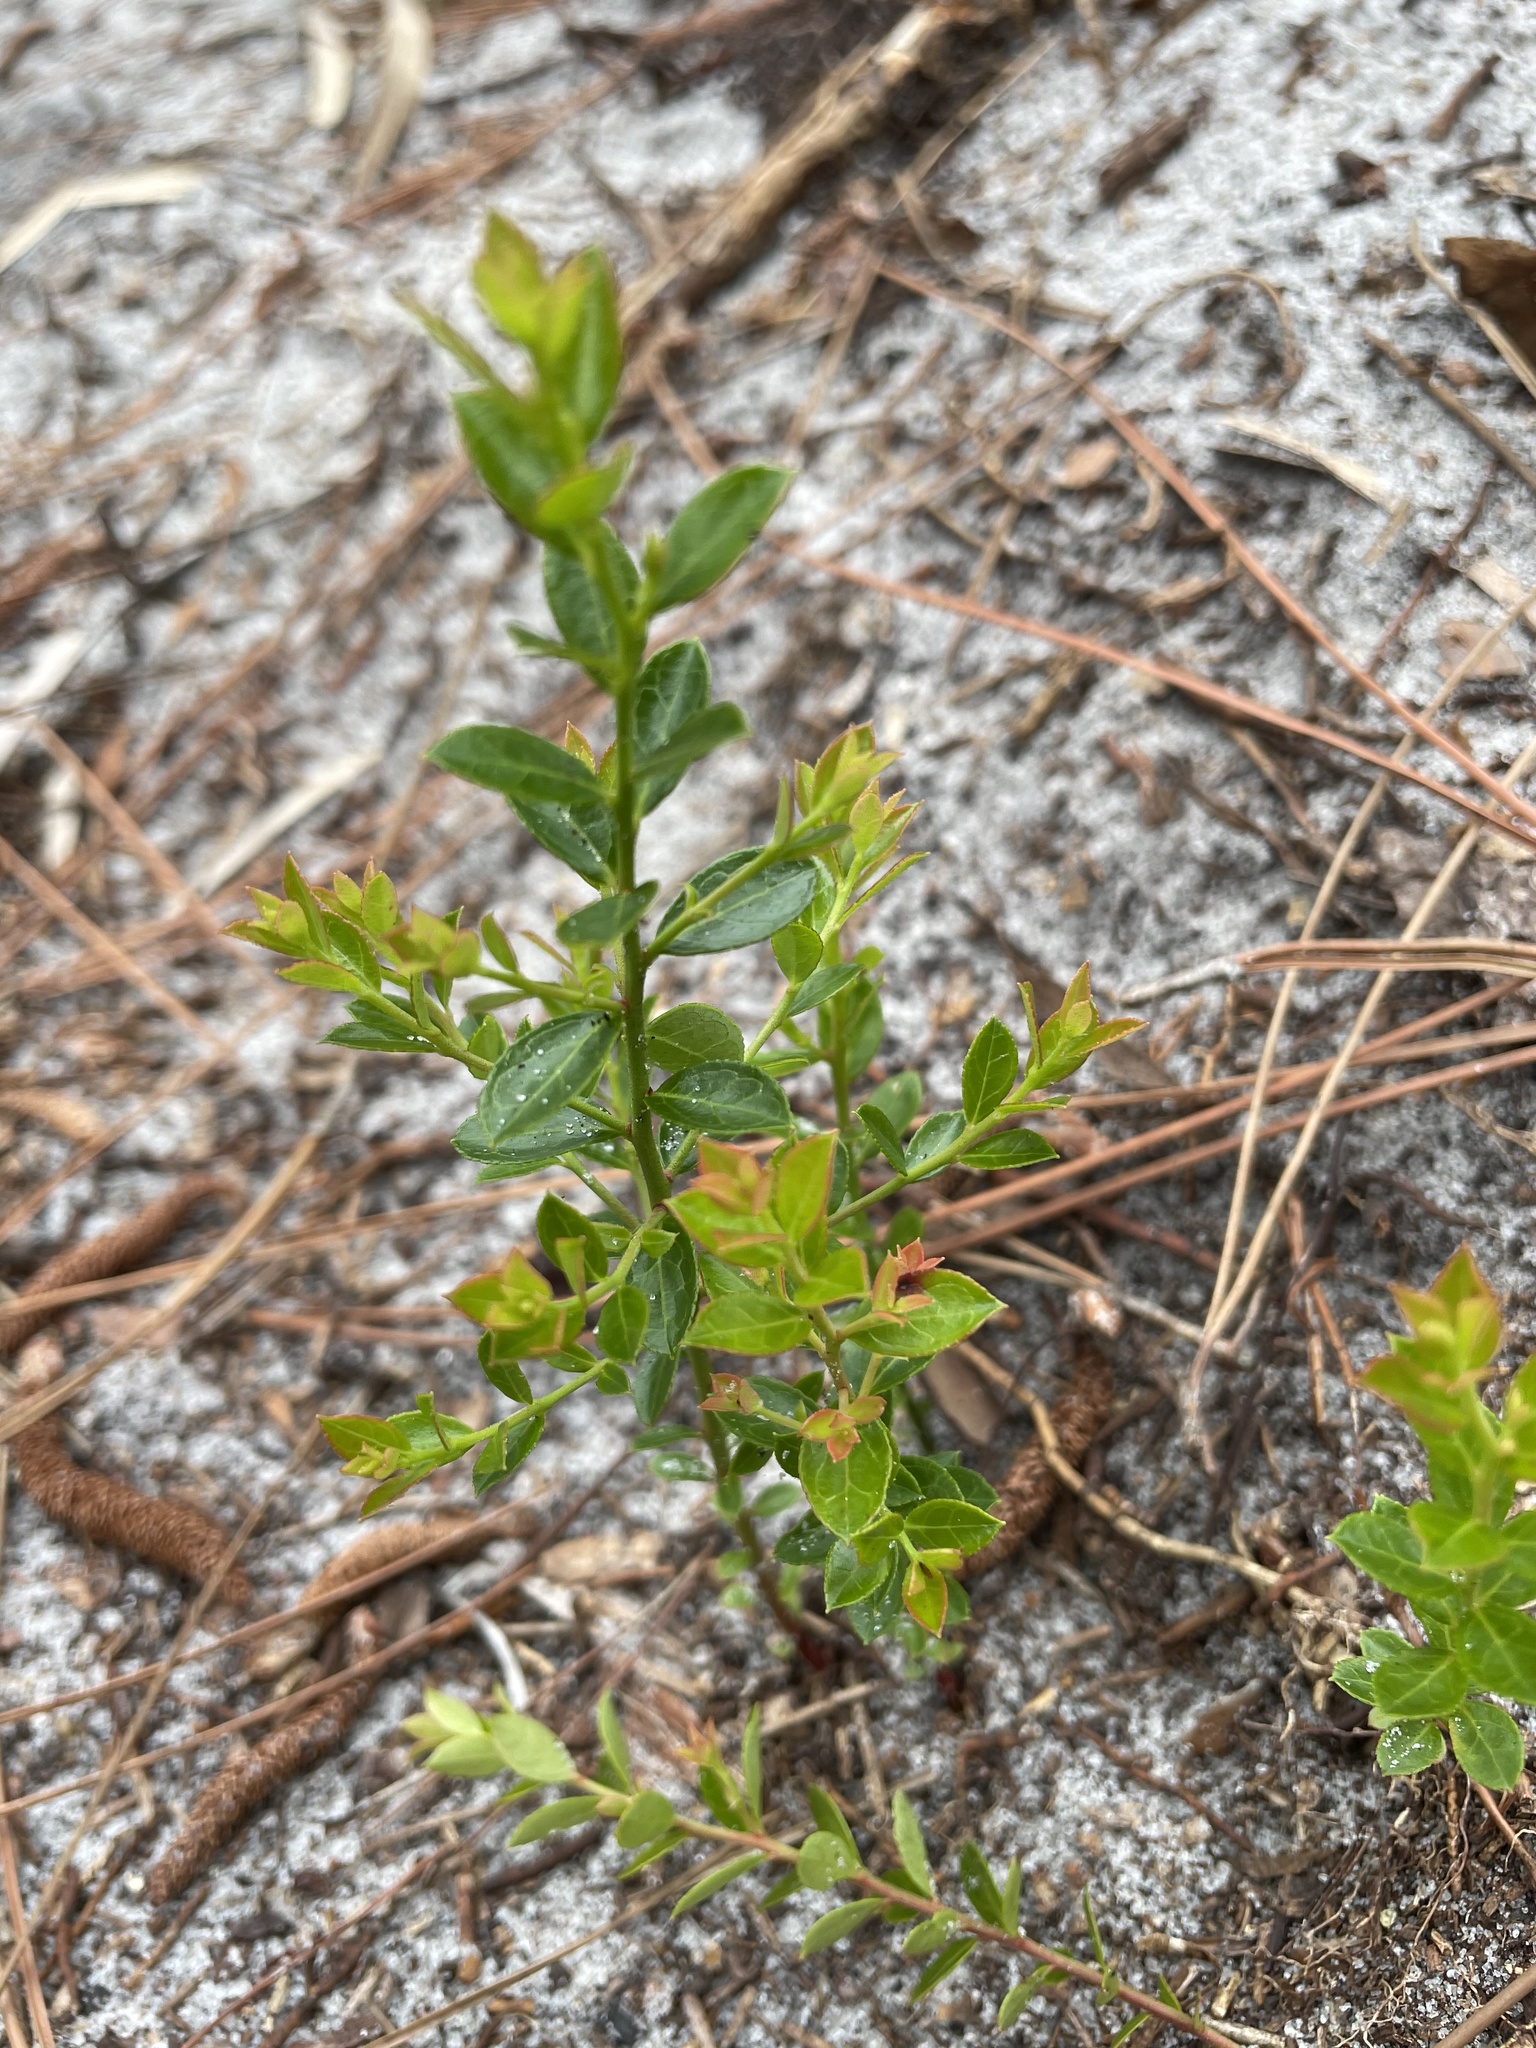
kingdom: Plantae
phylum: Tracheophyta
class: Magnoliopsida
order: Ericales
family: Ericaceae
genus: Vaccinium
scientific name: Vaccinium myrsinites
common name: Evergreen blueberry
